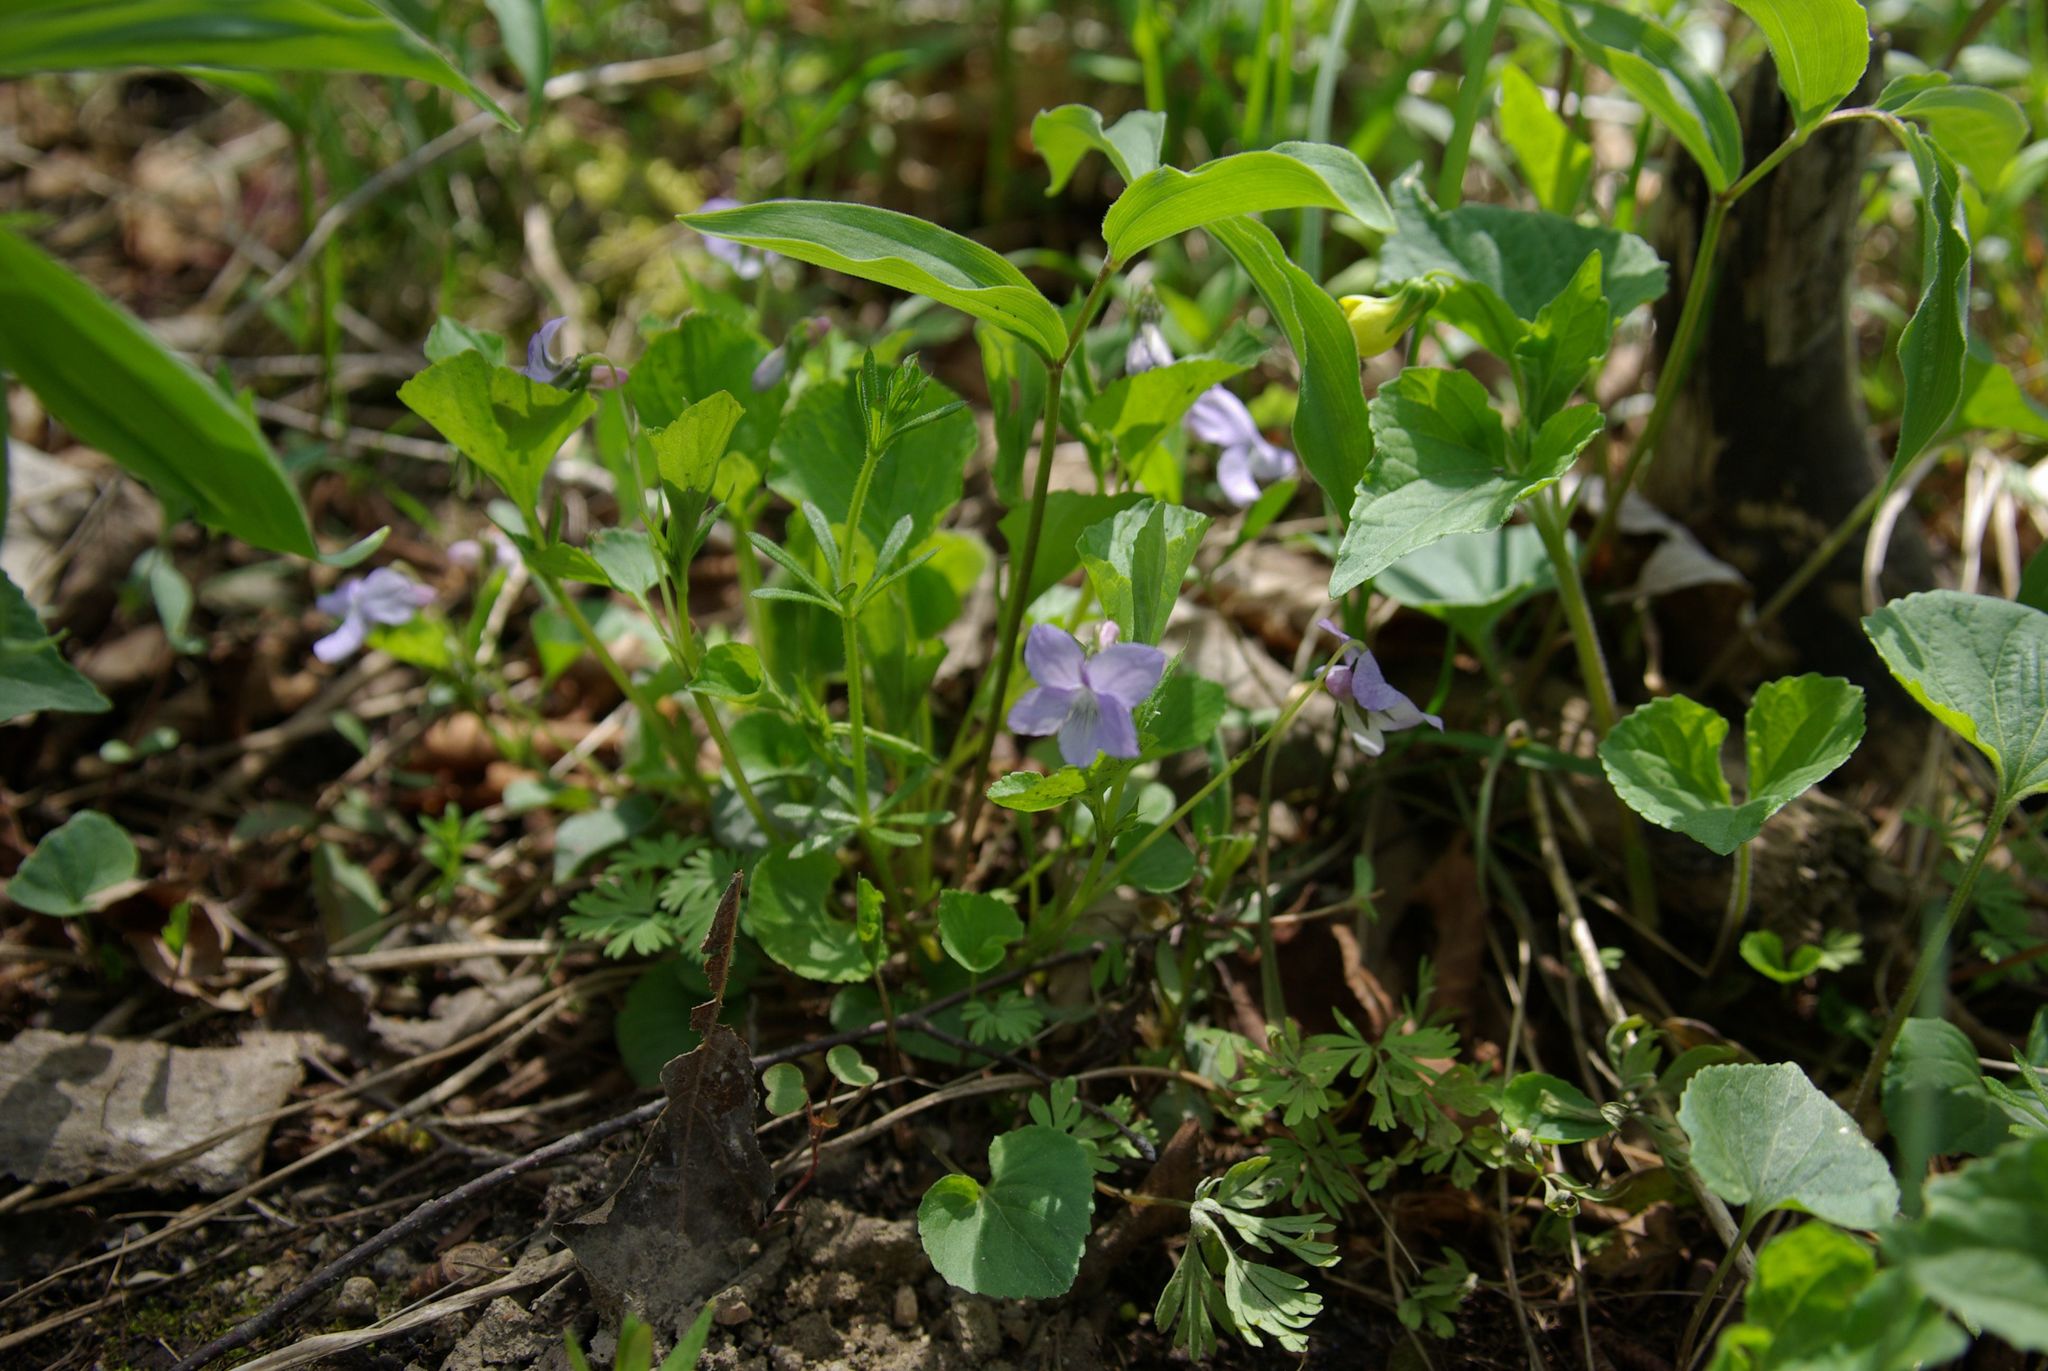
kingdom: Plantae
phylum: Tracheophyta
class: Magnoliopsida
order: Malpighiales
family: Violaceae
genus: Viola
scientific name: Viola labradorica
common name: Labrador violet
